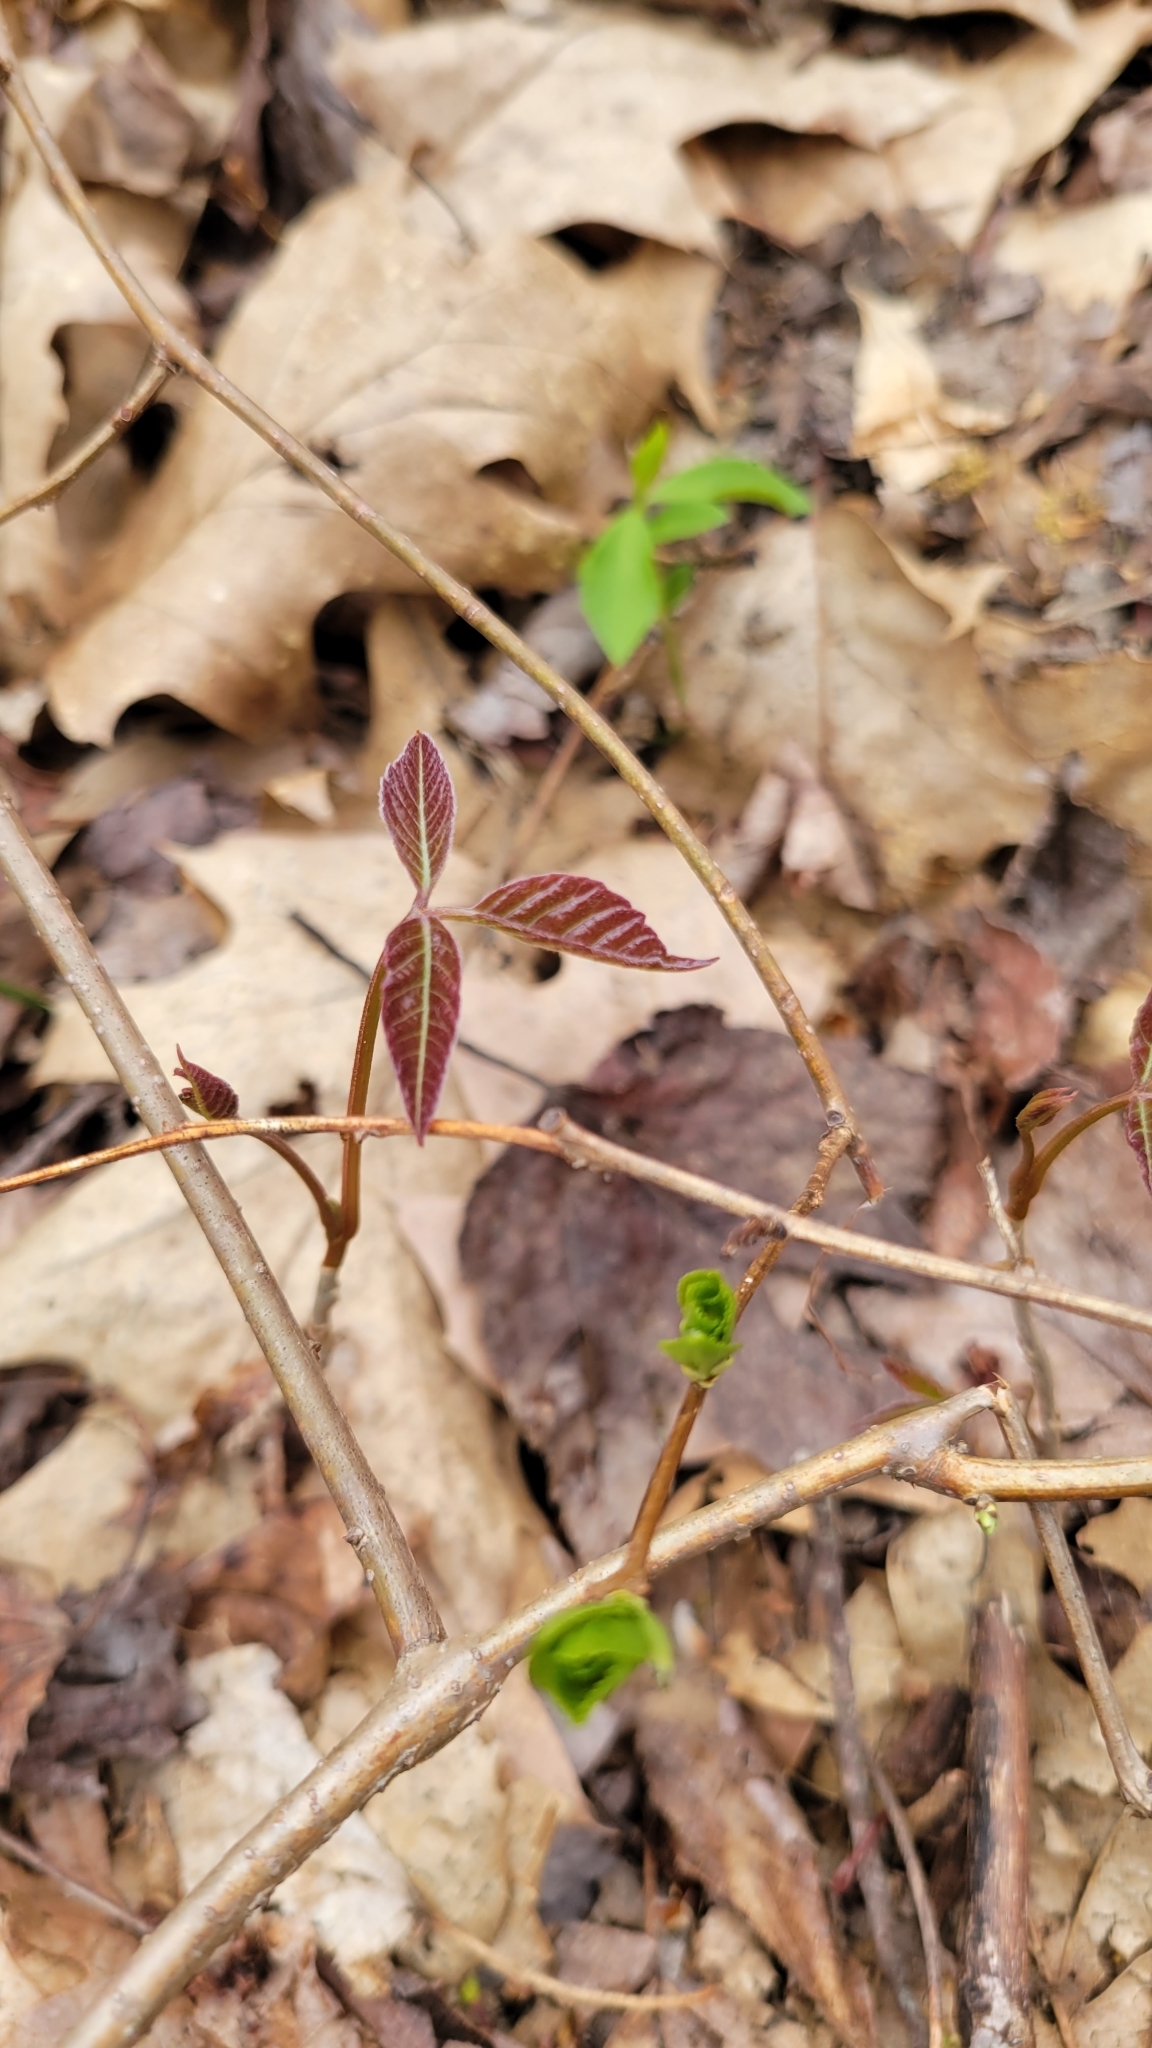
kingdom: Plantae
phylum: Tracheophyta
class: Magnoliopsida
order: Sapindales
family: Anacardiaceae
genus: Toxicodendron
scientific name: Toxicodendron radicans
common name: Poison ivy
